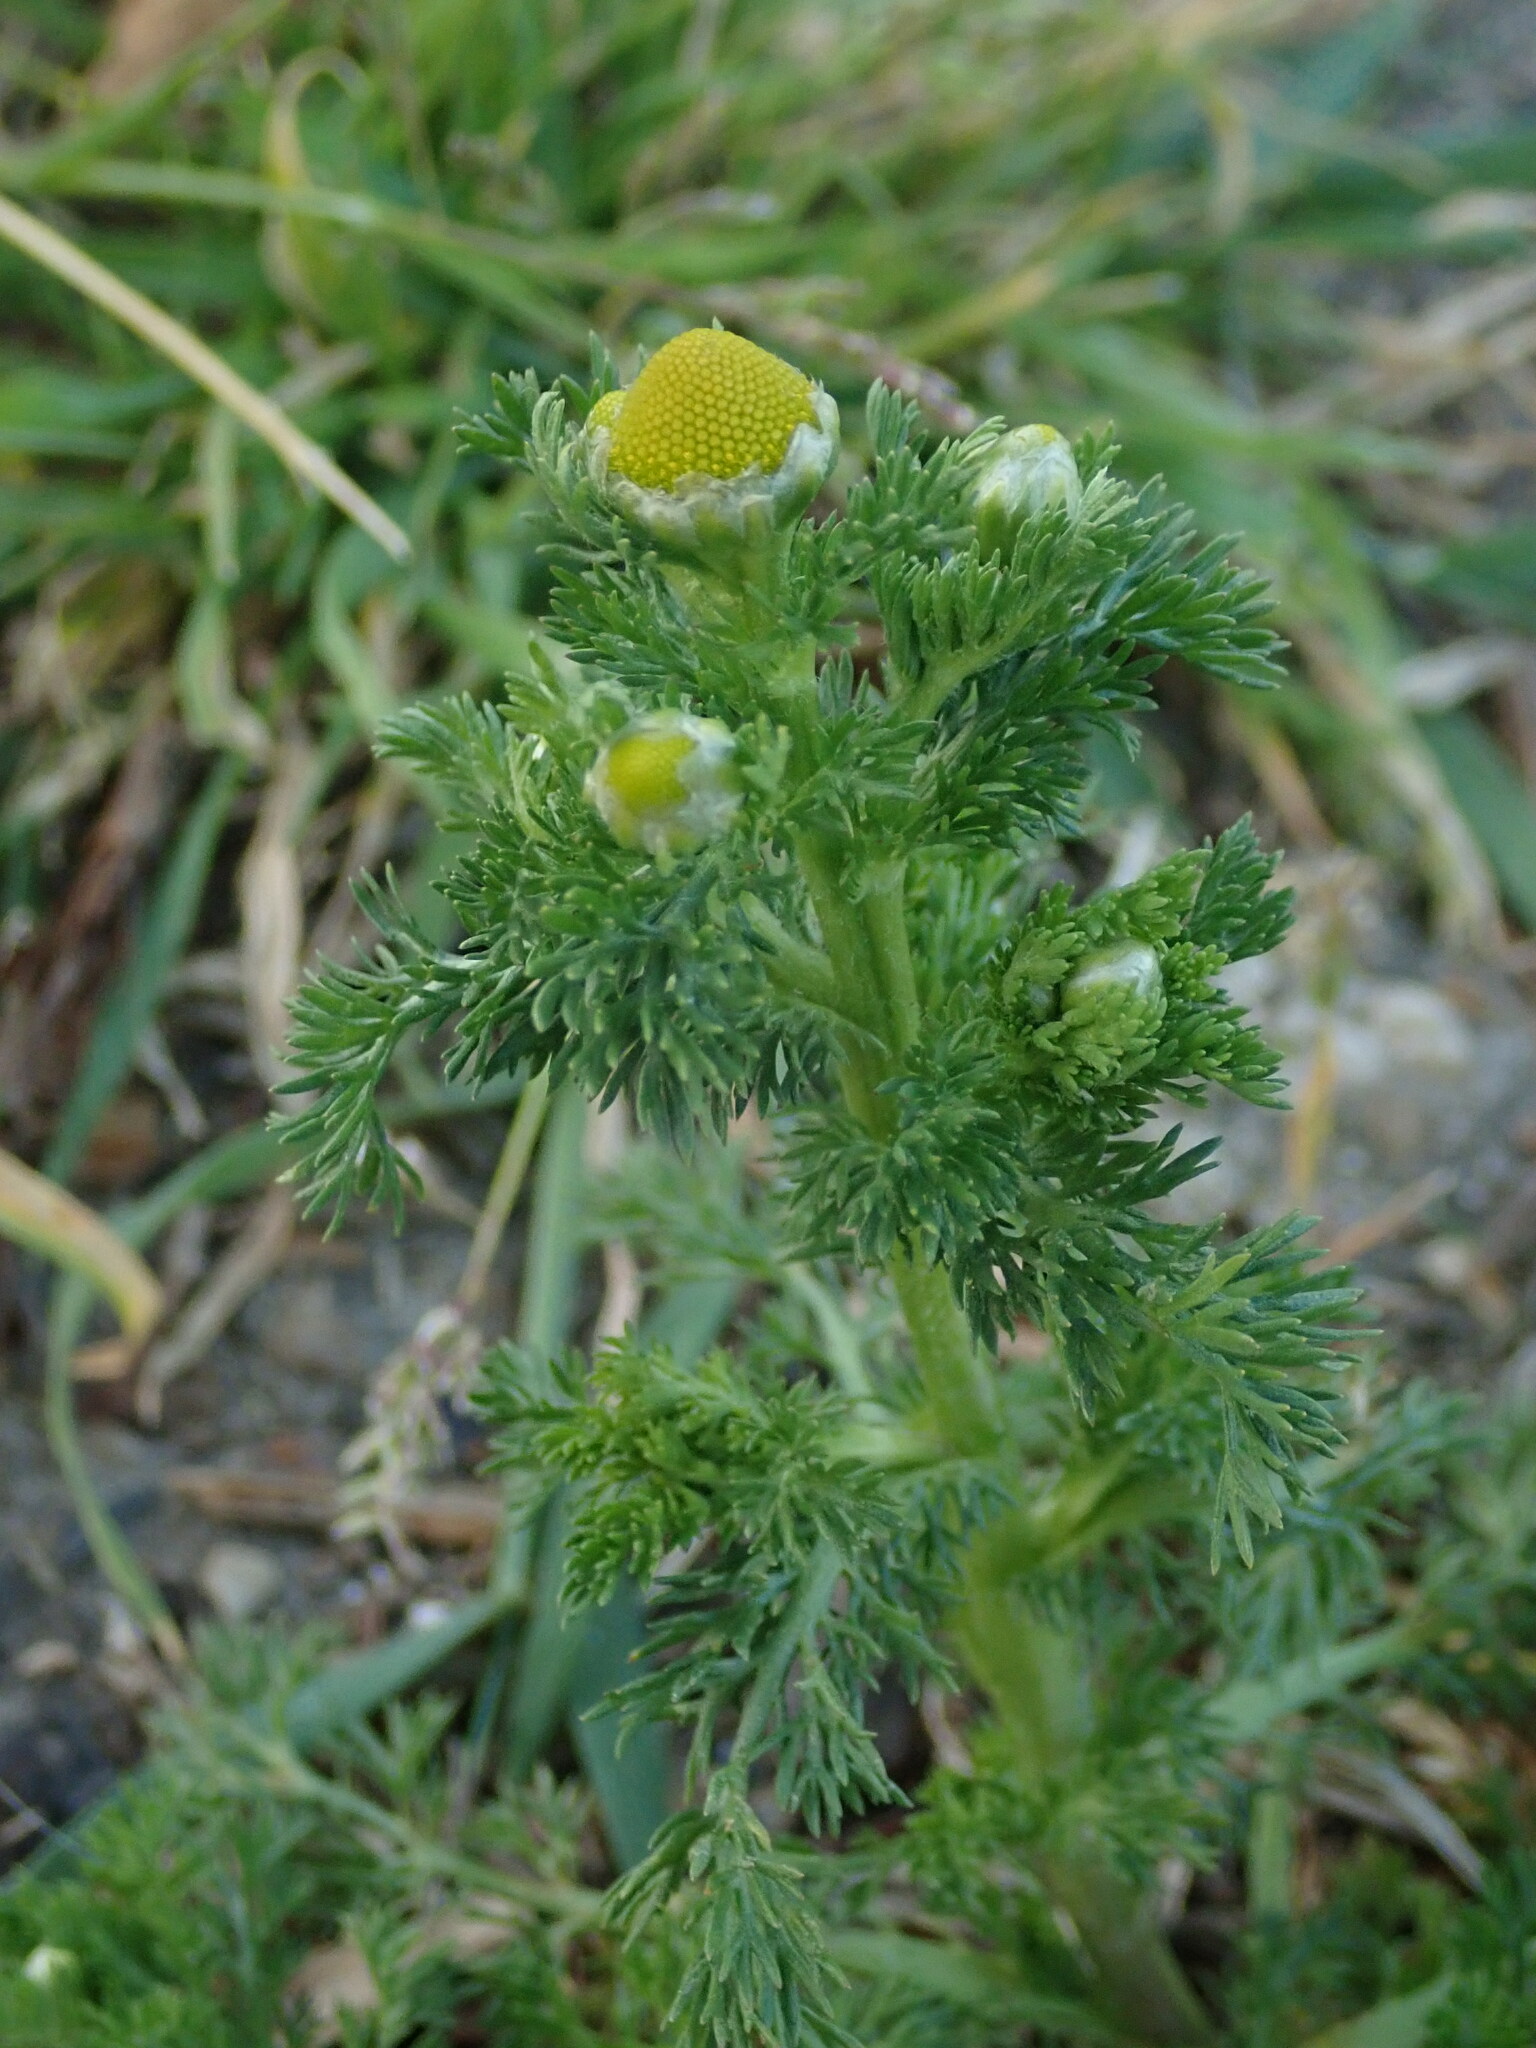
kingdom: Plantae
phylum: Tracheophyta
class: Magnoliopsida
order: Asterales
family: Asteraceae
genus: Matricaria
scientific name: Matricaria discoidea
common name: Disc mayweed
